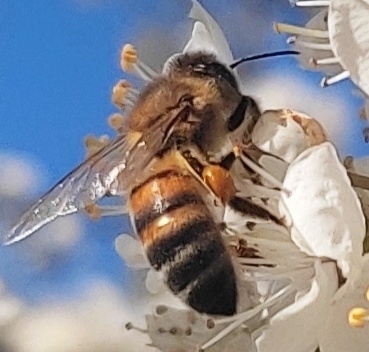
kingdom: Animalia
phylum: Arthropoda
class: Insecta
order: Hymenoptera
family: Apidae
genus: Apis
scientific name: Apis mellifera
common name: Honey bee
